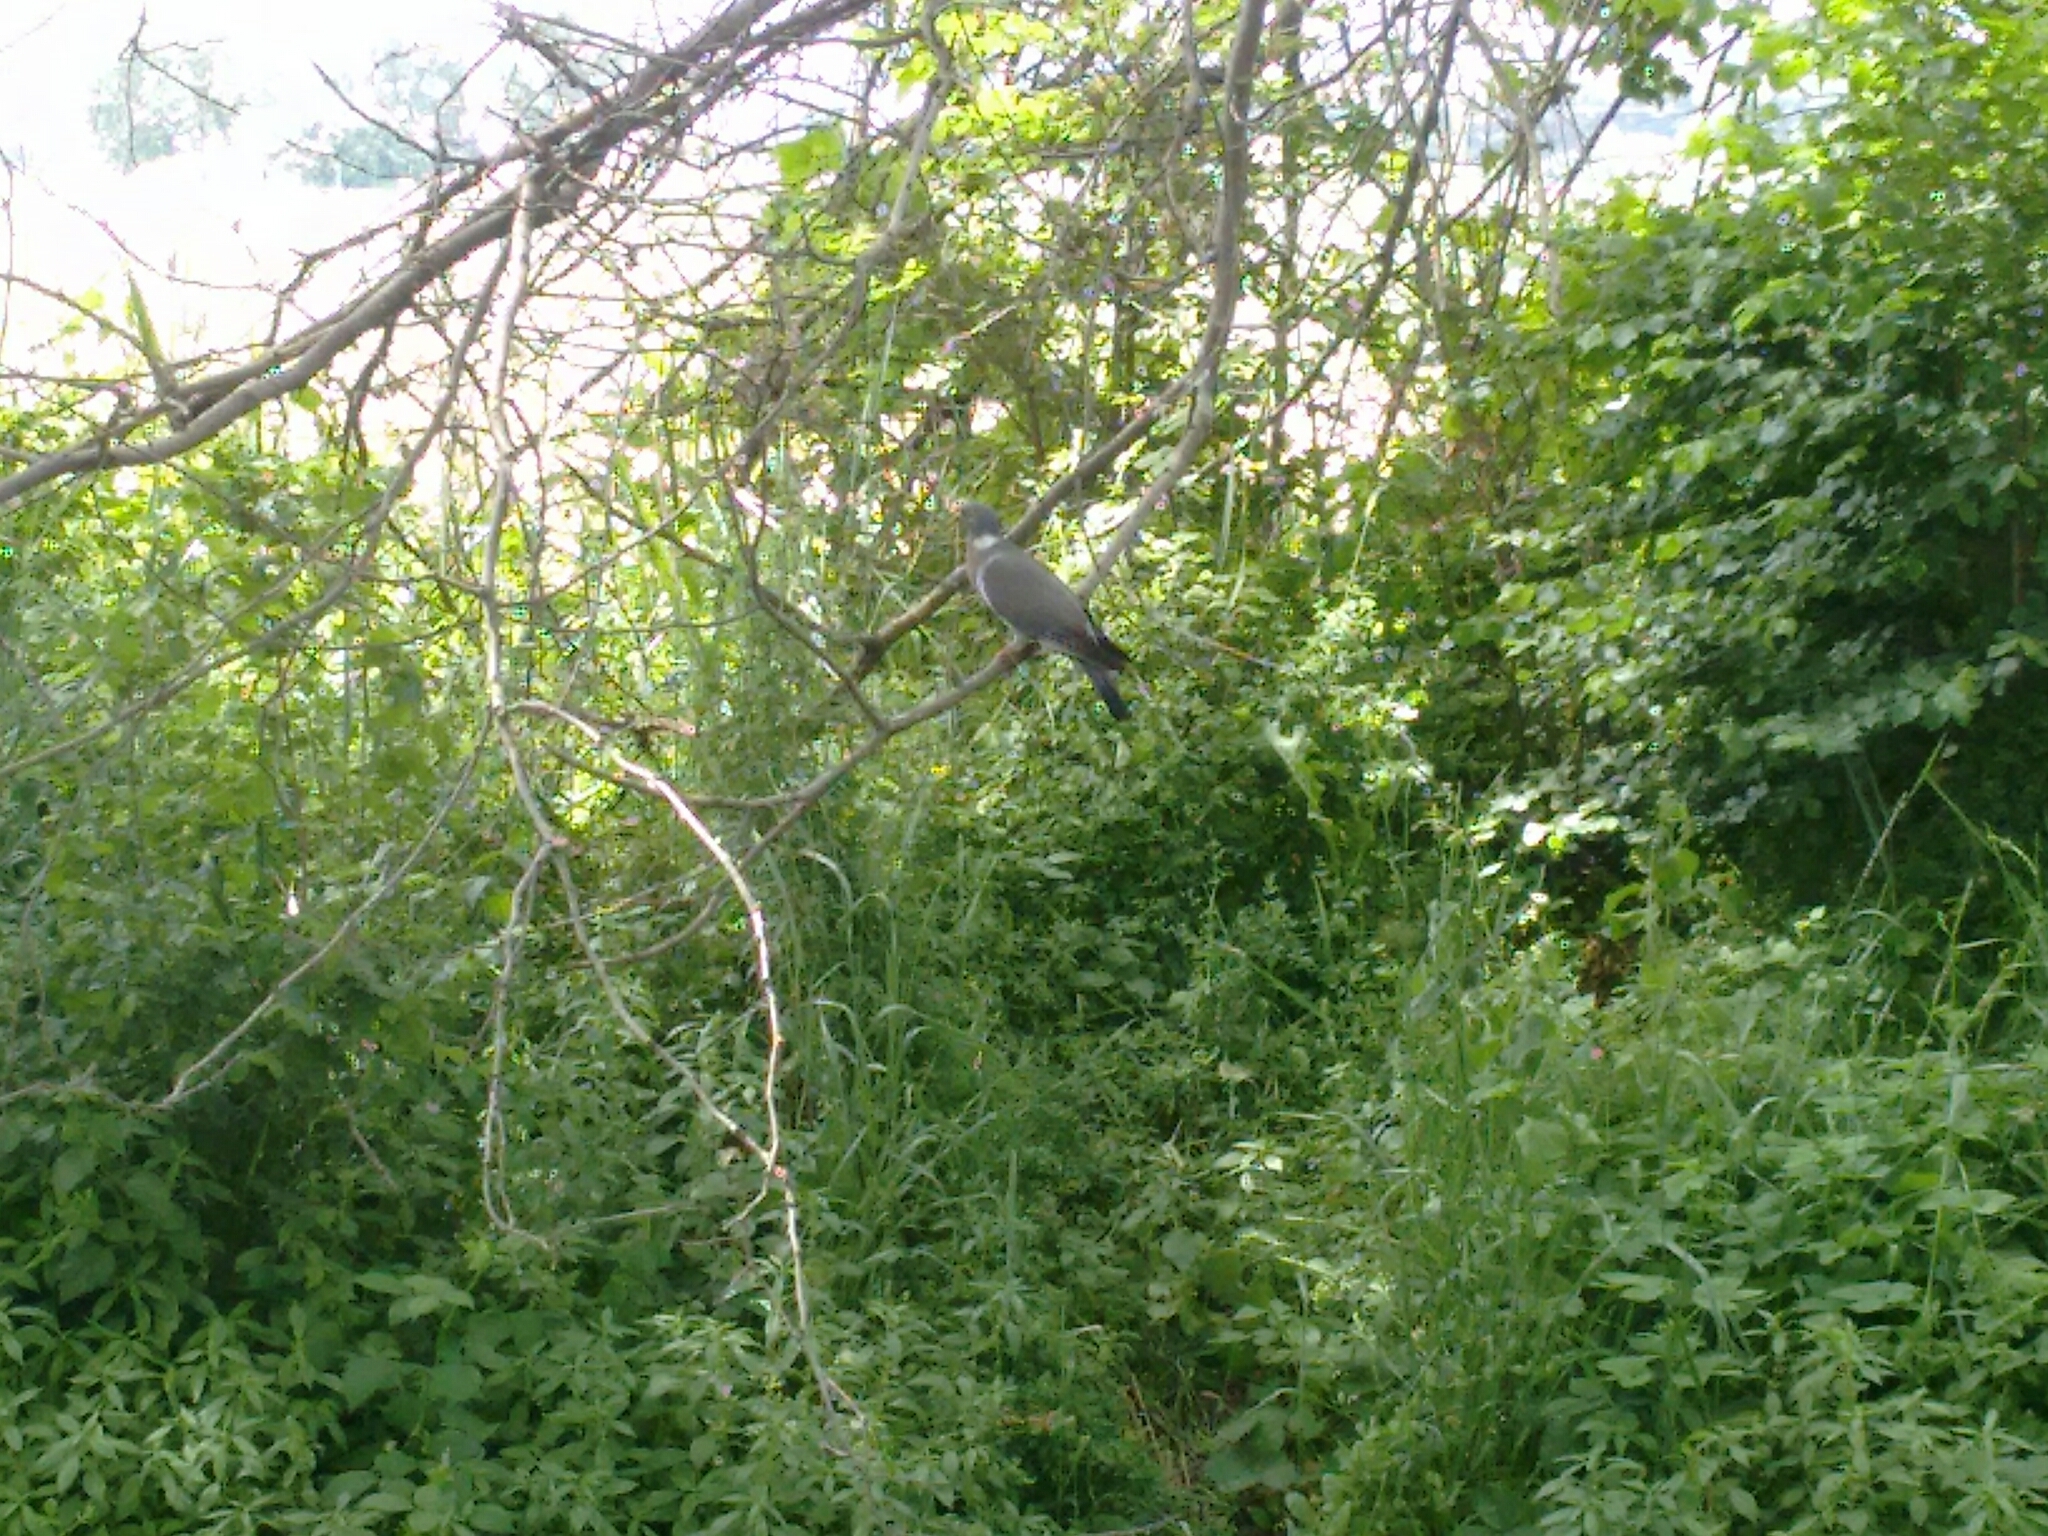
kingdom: Animalia
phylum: Chordata
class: Aves
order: Columbiformes
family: Columbidae
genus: Columba
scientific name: Columba palumbus
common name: Common wood pigeon
